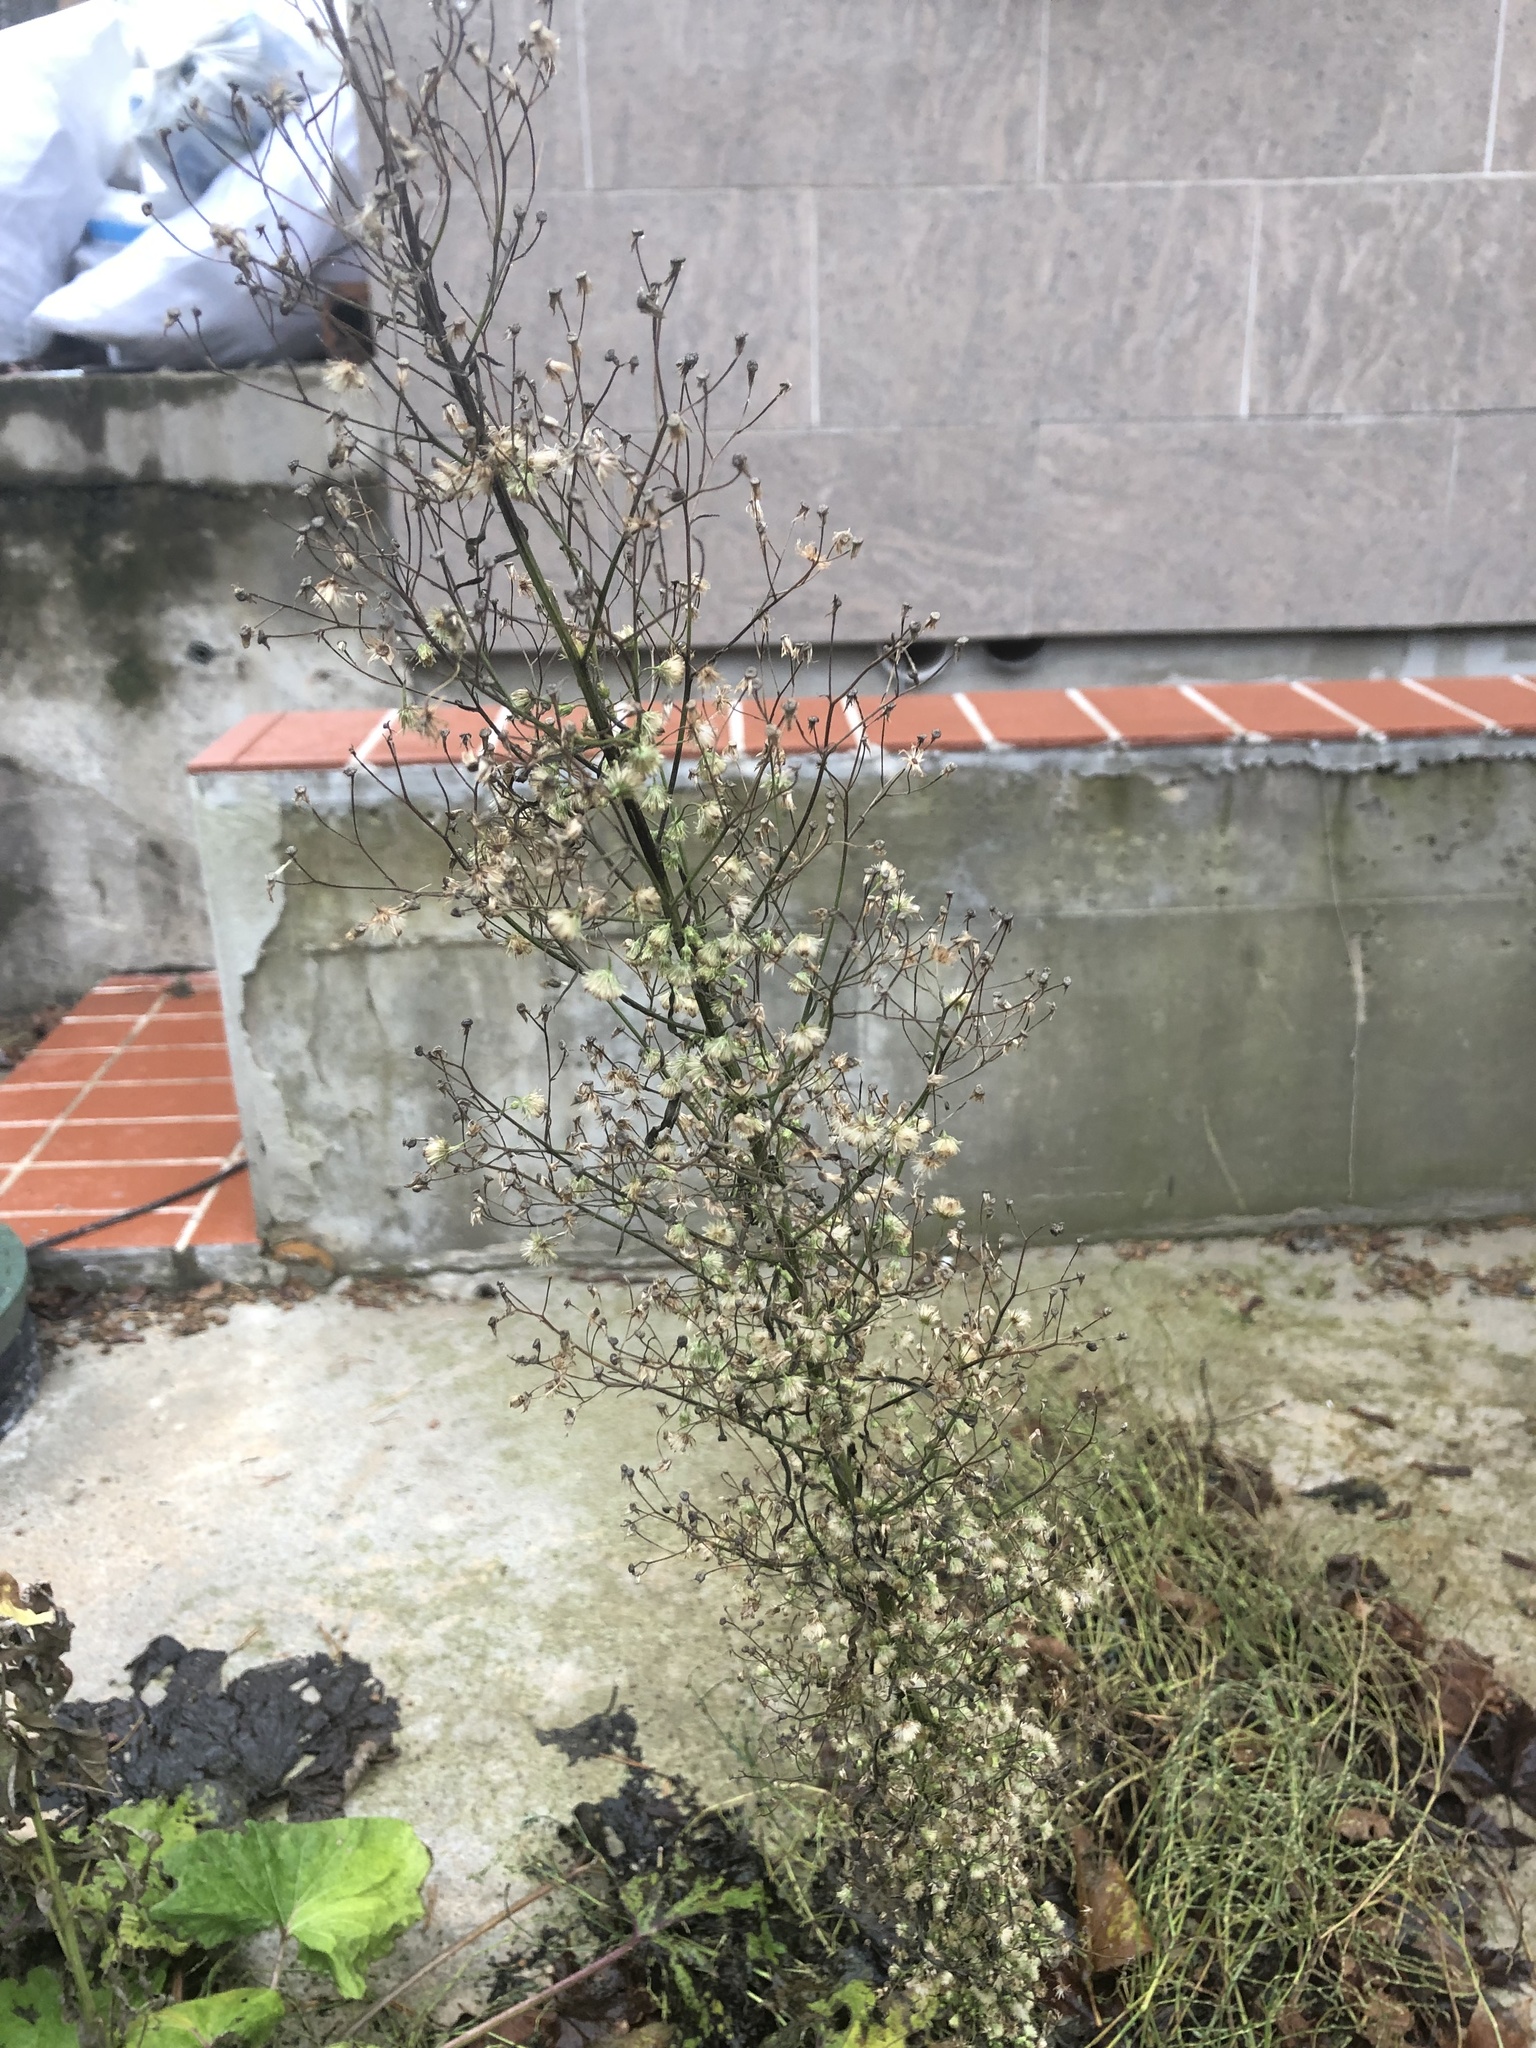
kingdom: Plantae
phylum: Tracheophyta
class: Magnoliopsida
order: Asterales
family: Asteraceae
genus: Erigeron
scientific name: Erigeron canadensis
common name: Canadian fleabane
